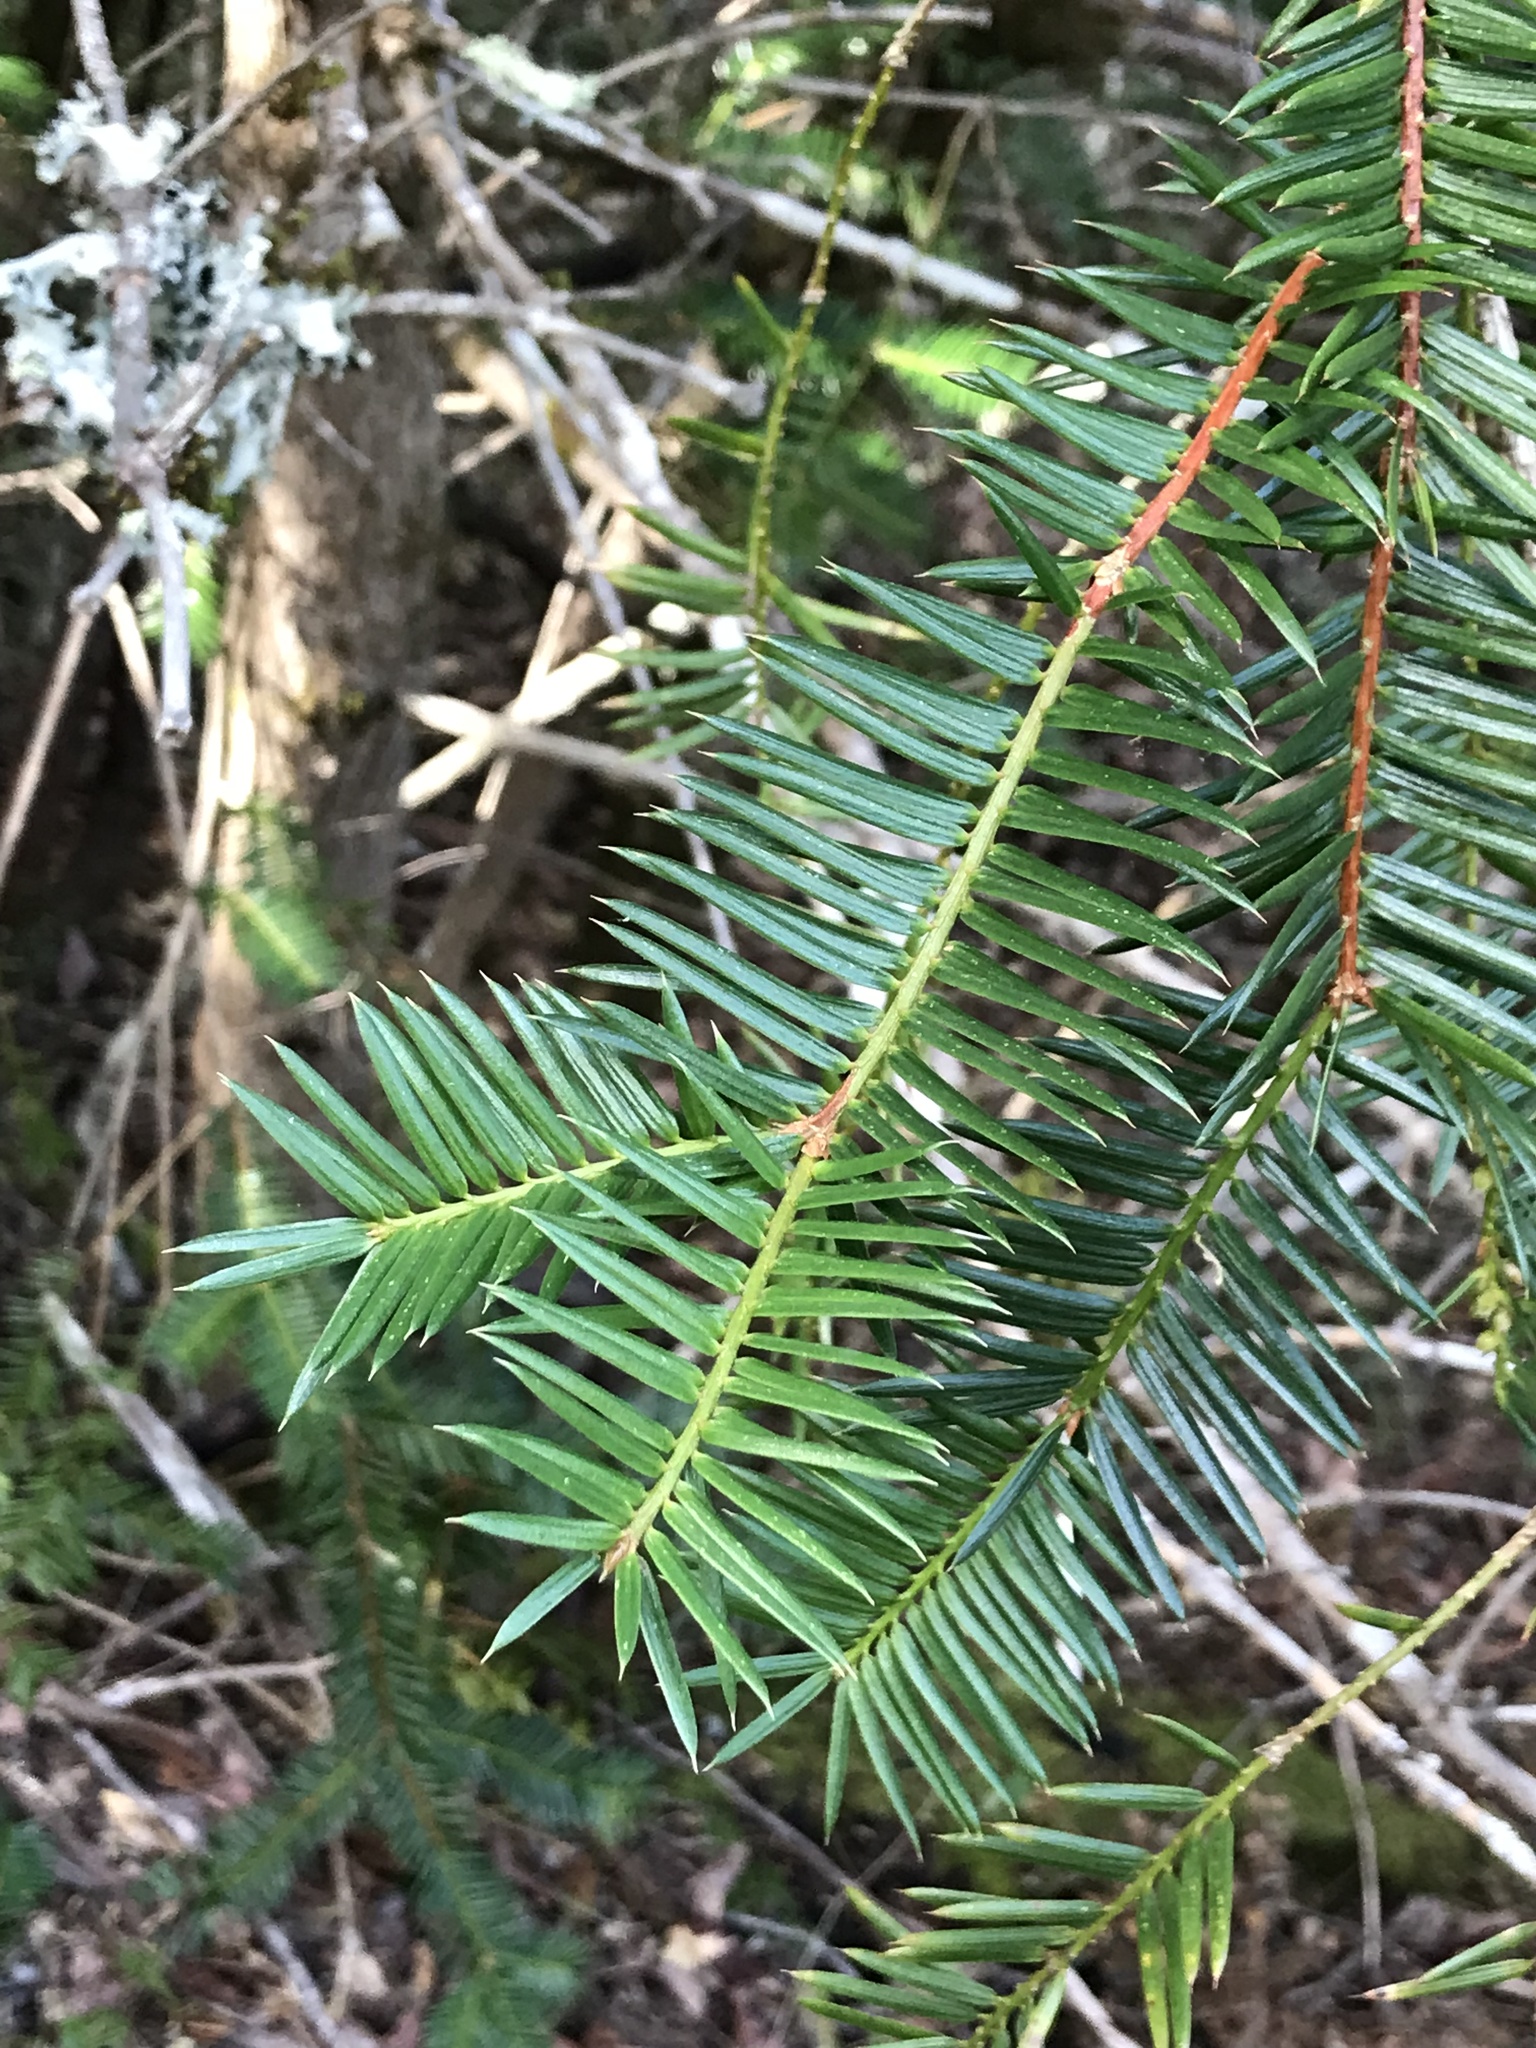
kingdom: Plantae
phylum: Tracheophyta
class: Pinopsida
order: Pinales
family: Taxaceae
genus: Torreya
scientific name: Torreya californica
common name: California torreya
